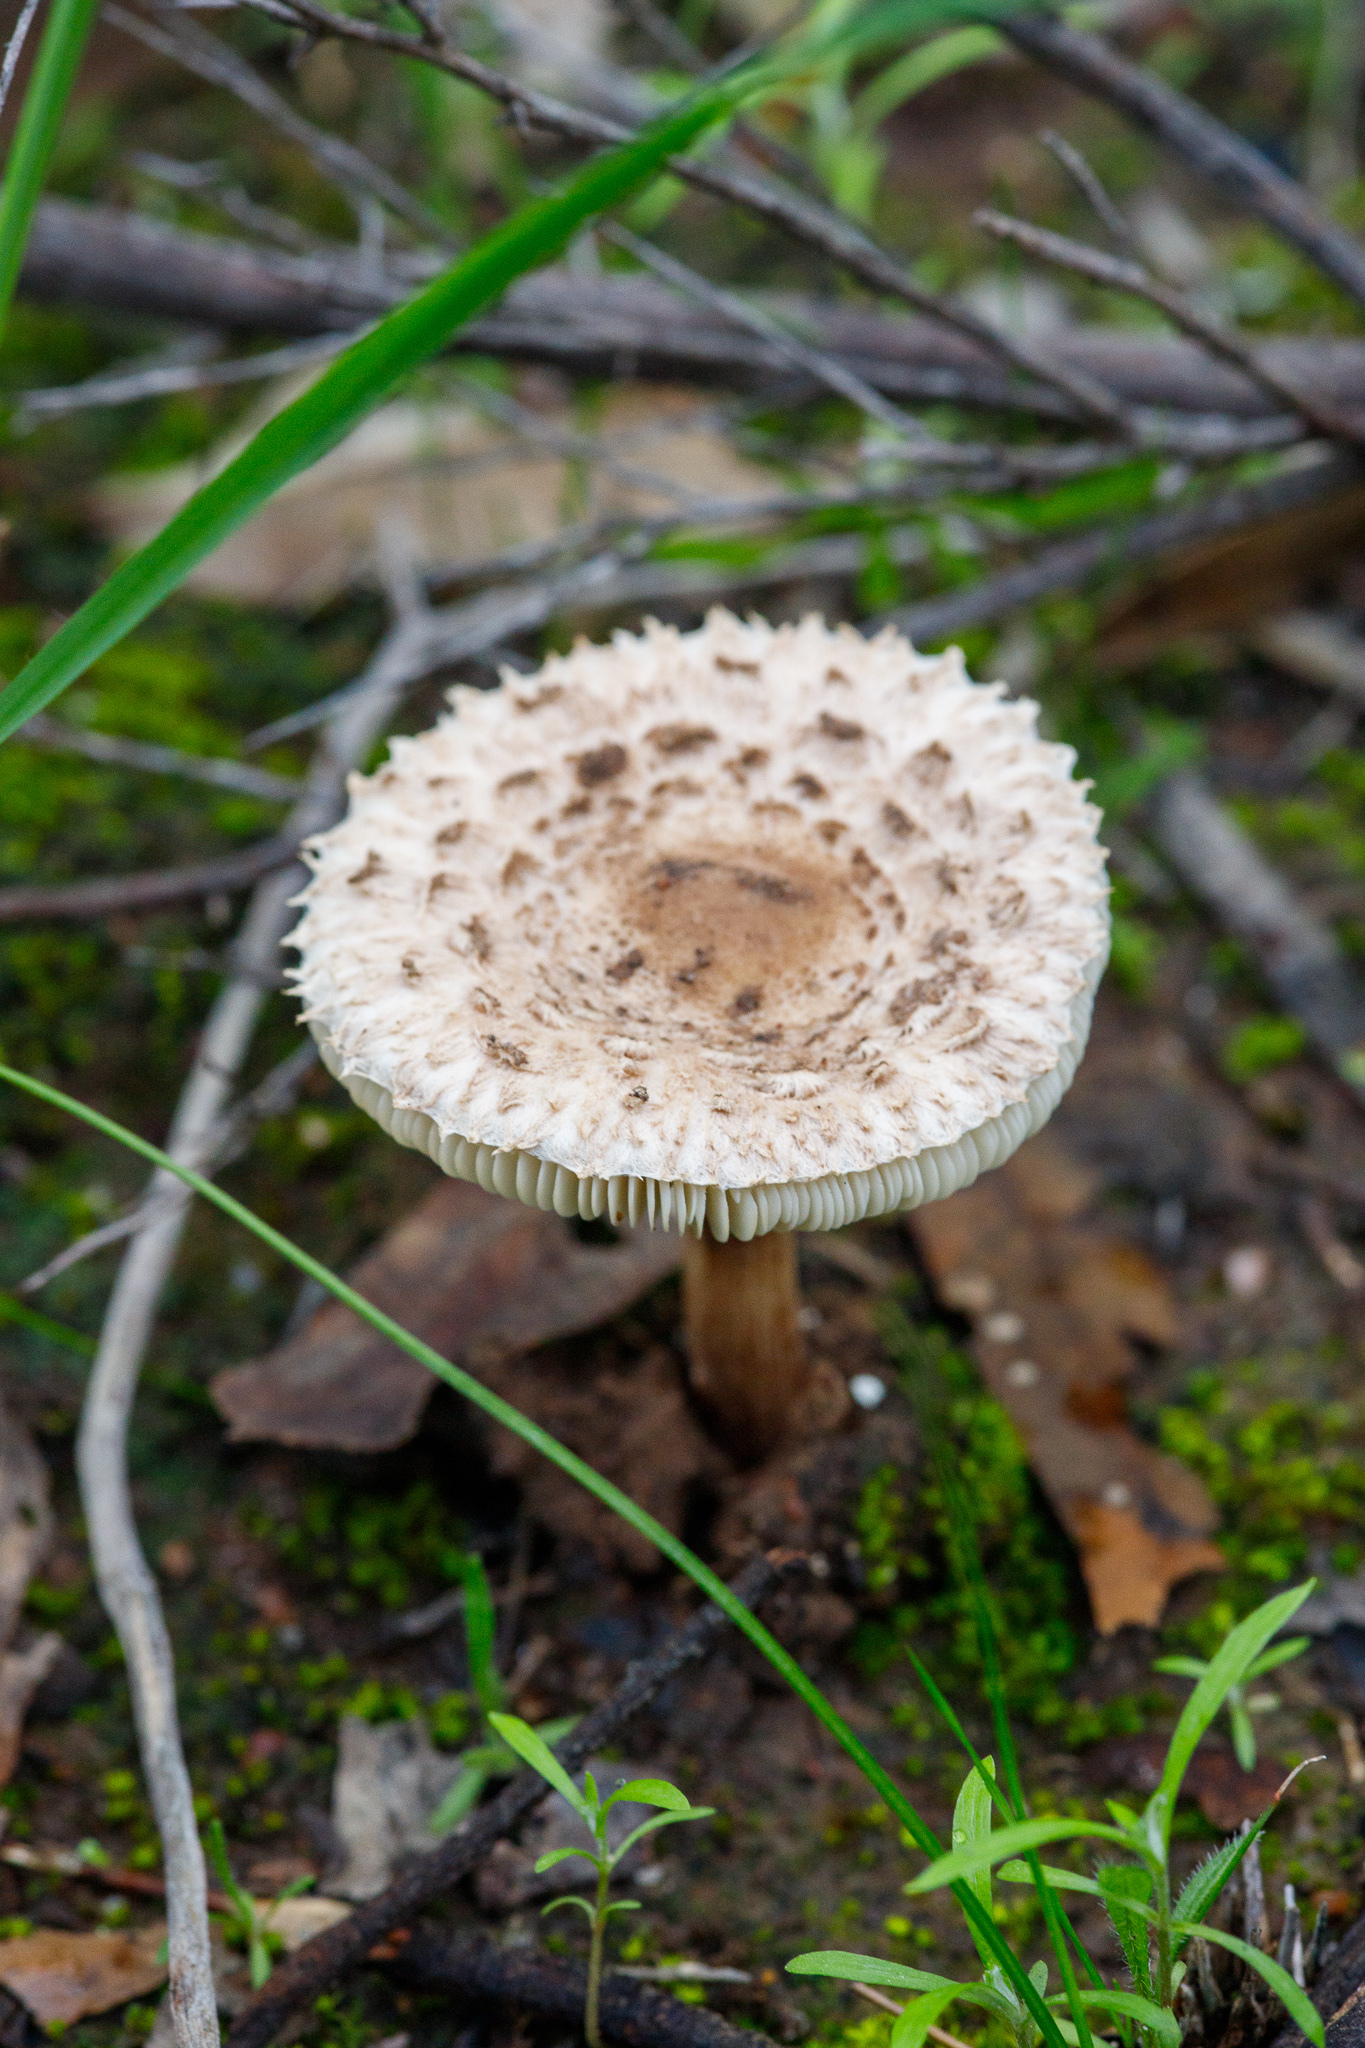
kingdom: Fungi
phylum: Basidiomycota
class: Agaricomycetes
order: Agaricales
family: Agaricaceae
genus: Macrolepiota
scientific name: Macrolepiota clelandii
